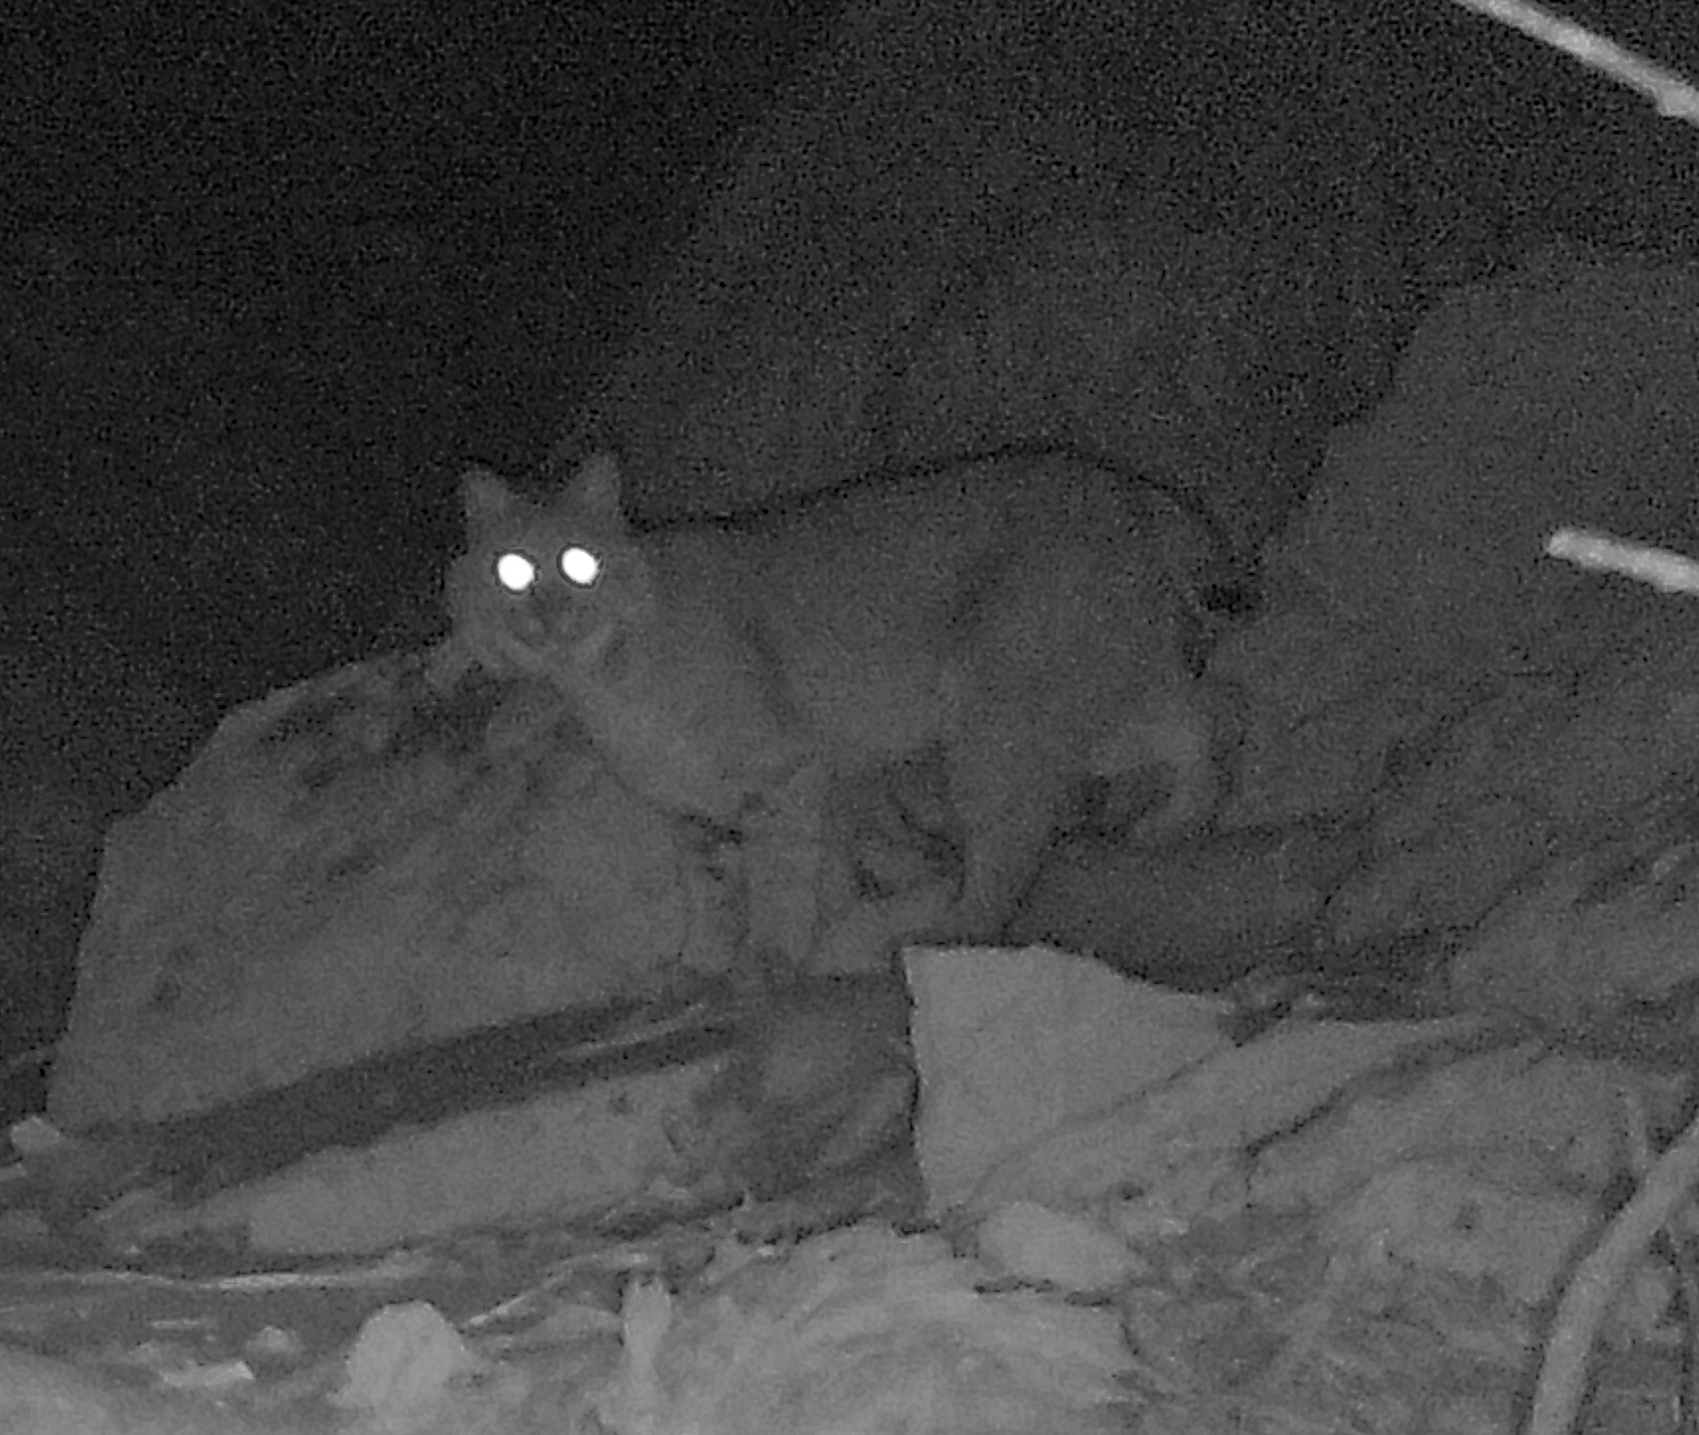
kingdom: Animalia
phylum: Chordata
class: Mammalia
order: Carnivora
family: Felidae
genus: Lynx
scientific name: Lynx rufus
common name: Bobcat
